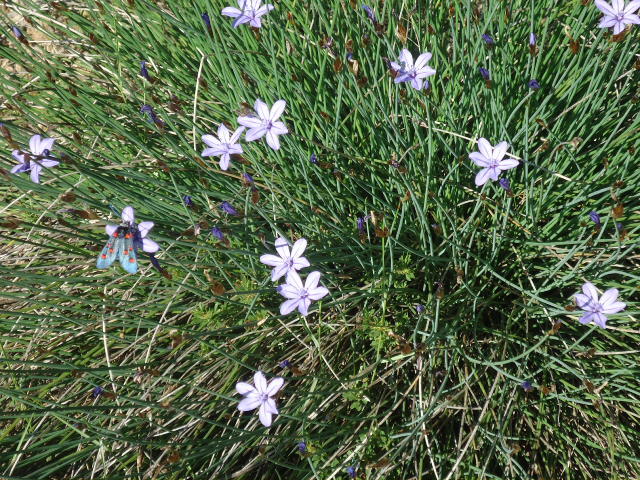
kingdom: Plantae
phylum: Tracheophyta
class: Liliopsida
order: Asparagales
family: Asparagaceae
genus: Aphyllanthes
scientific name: Aphyllanthes monspeliensis
